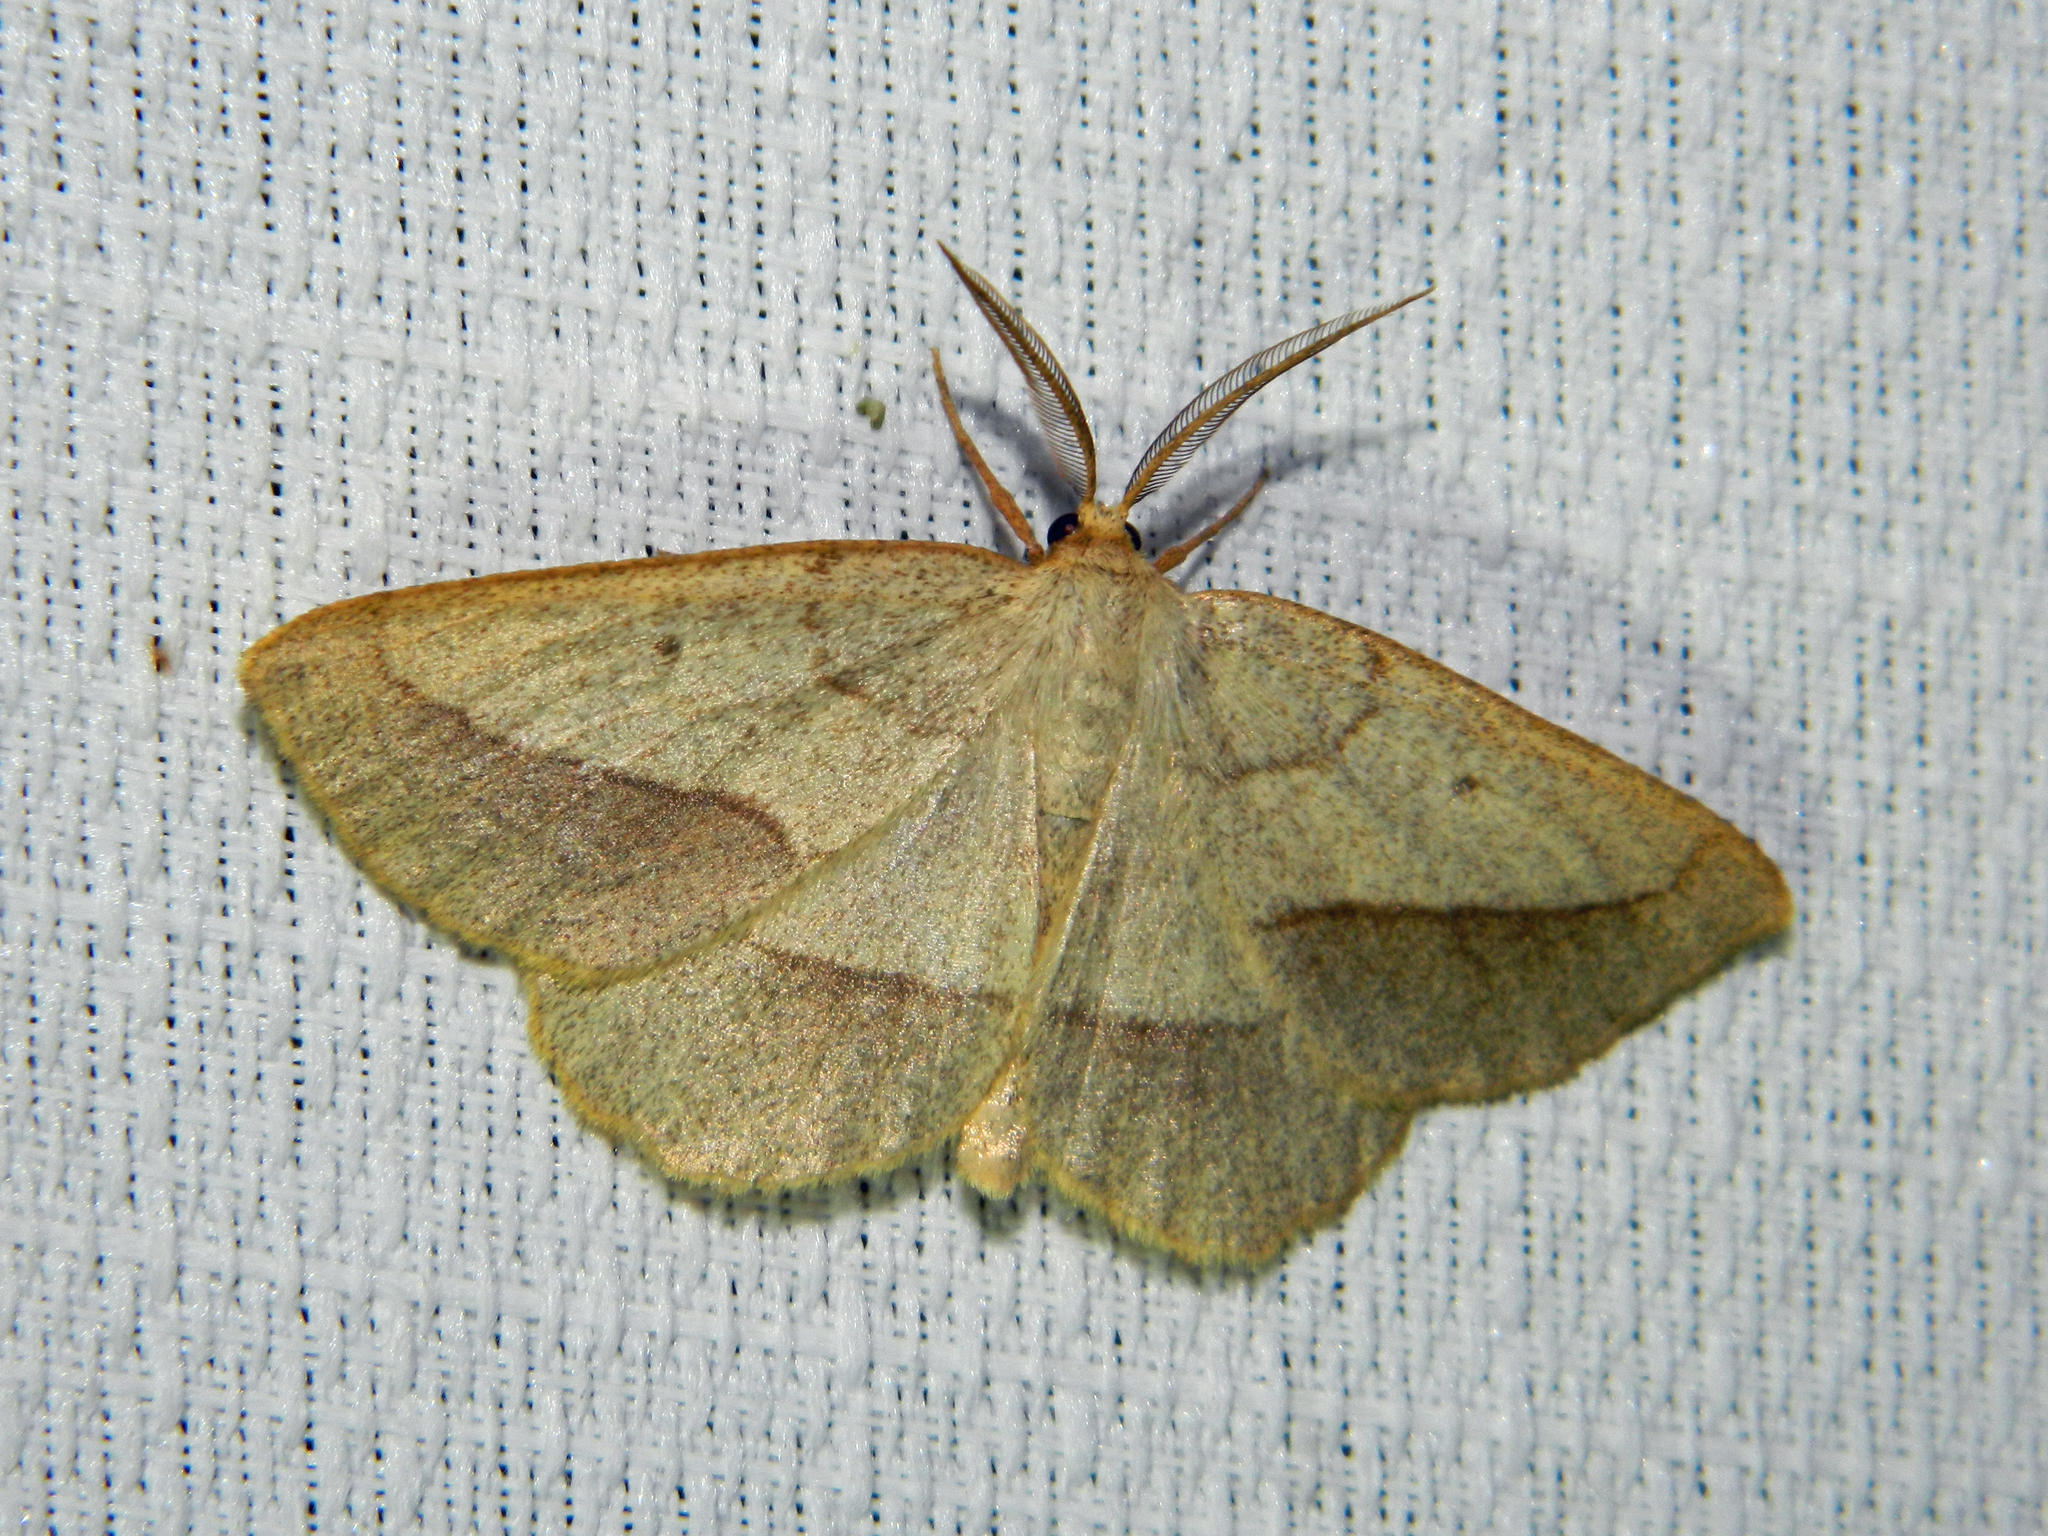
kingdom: Animalia
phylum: Arthropoda
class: Insecta
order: Lepidoptera
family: Geometridae
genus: Euchlaena
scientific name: Euchlaena irraria
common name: Least-marked euchlaena
